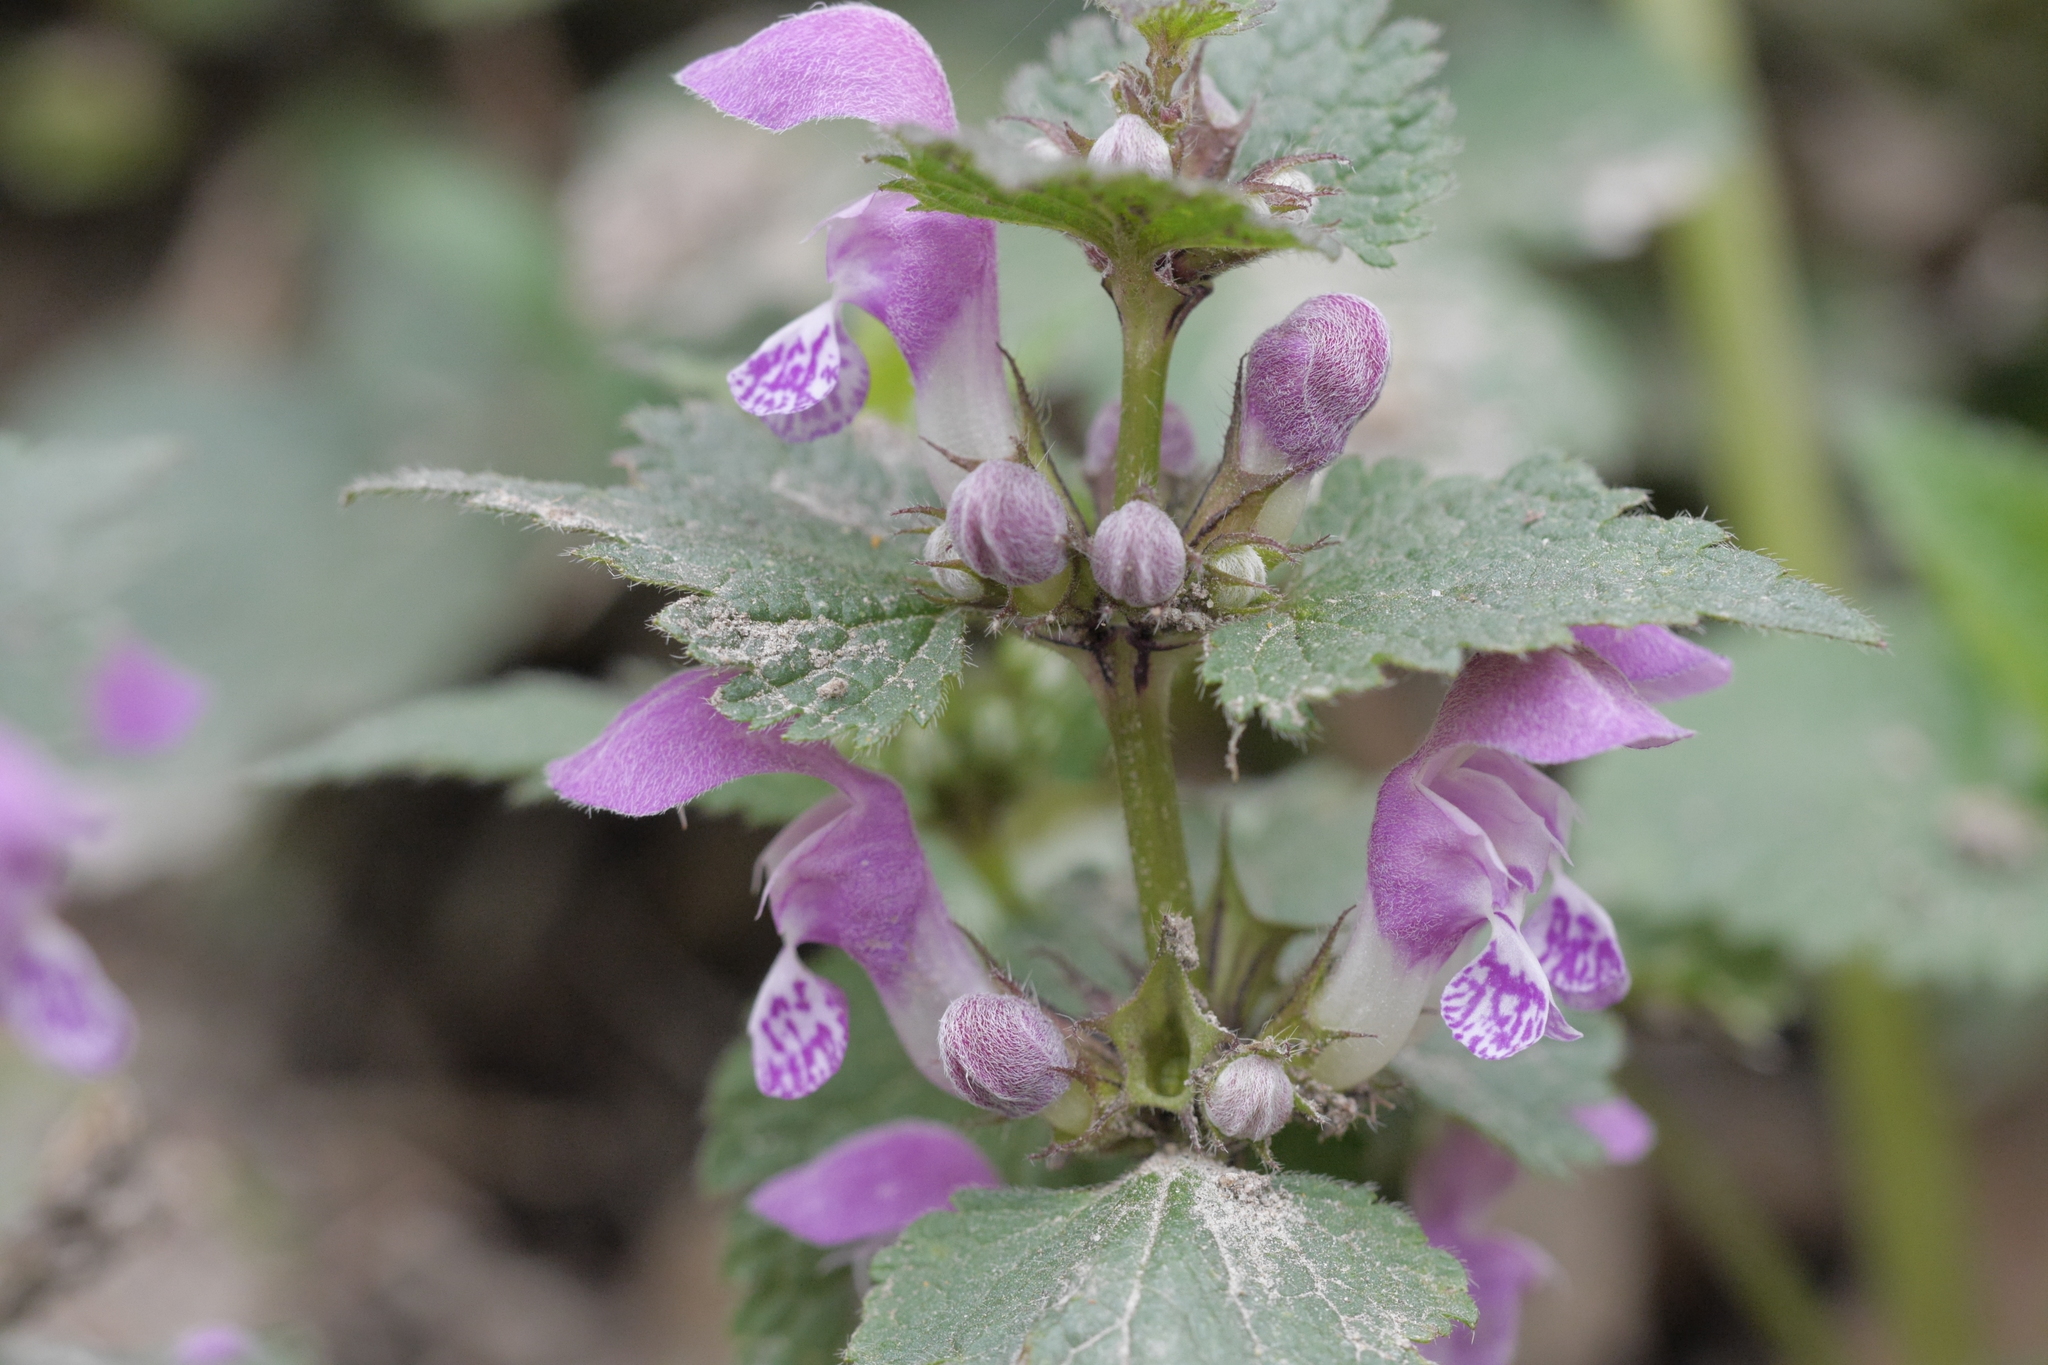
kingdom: Plantae
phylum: Tracheophyta
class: Magnoliopsida
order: Lamiales
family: Lamiaceae
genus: Lamium
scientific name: Lamium maculatum
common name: Spotted dead-nettle
